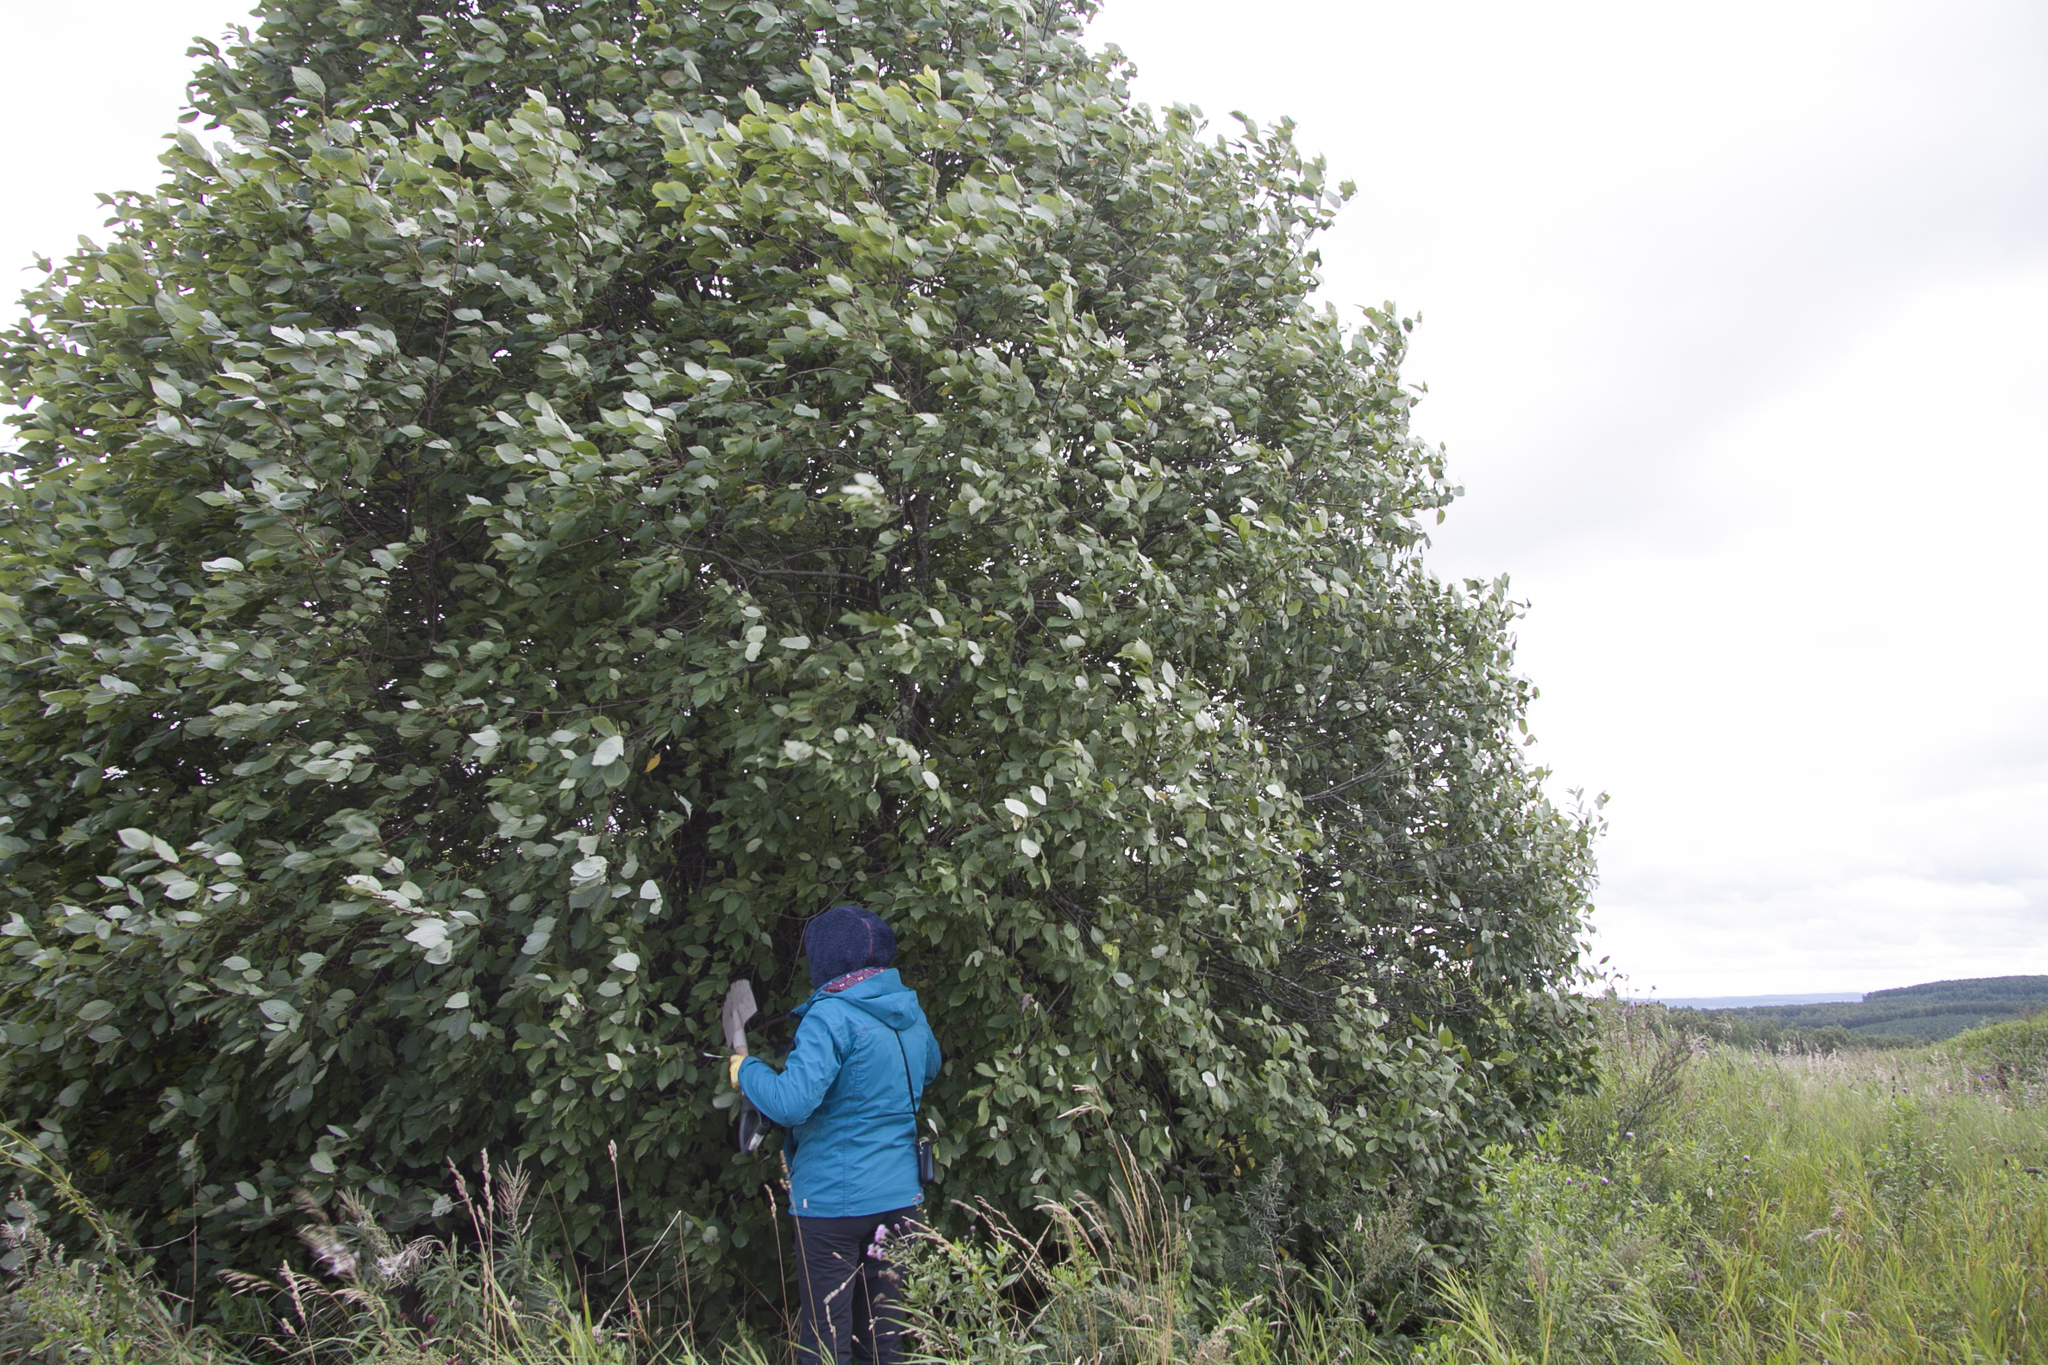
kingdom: Plantae
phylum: Tracheophyta
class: Magnoliopsida
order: Rosales
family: Rosaceae
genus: Prunus
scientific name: Prunus padus
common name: Bird cherry
